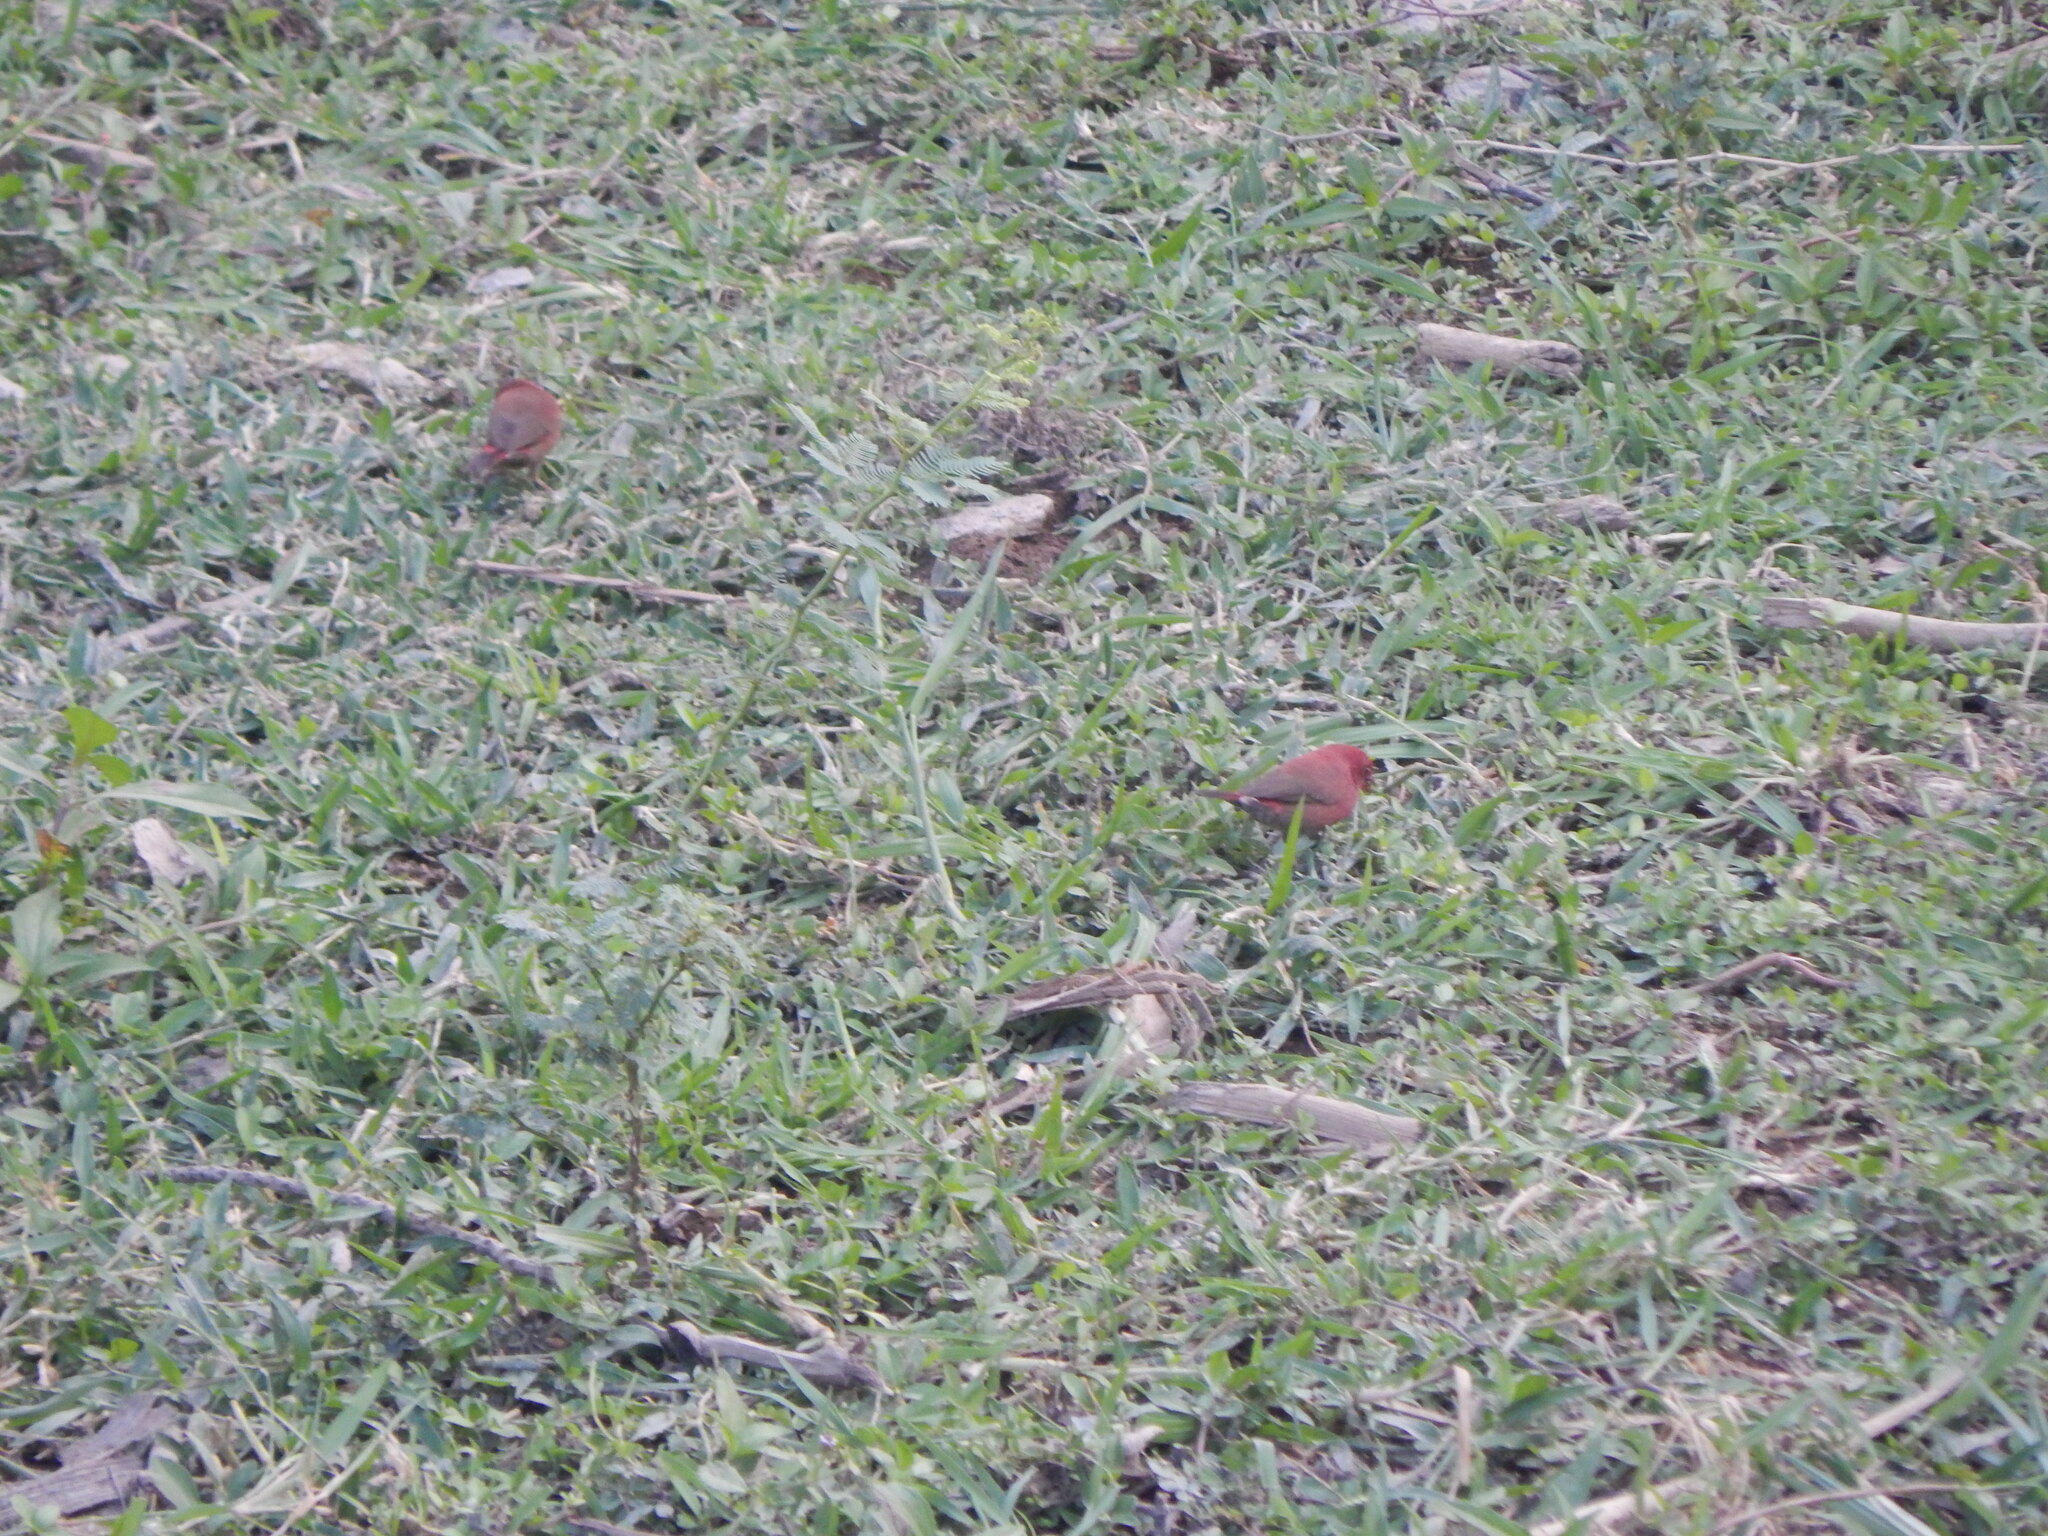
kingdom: Animalia
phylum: Chordata
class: Aves
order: Passeriformes
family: Estrildidae
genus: Lagonosticta
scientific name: Lagonosticta senegala
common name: Red-billed firefinch
